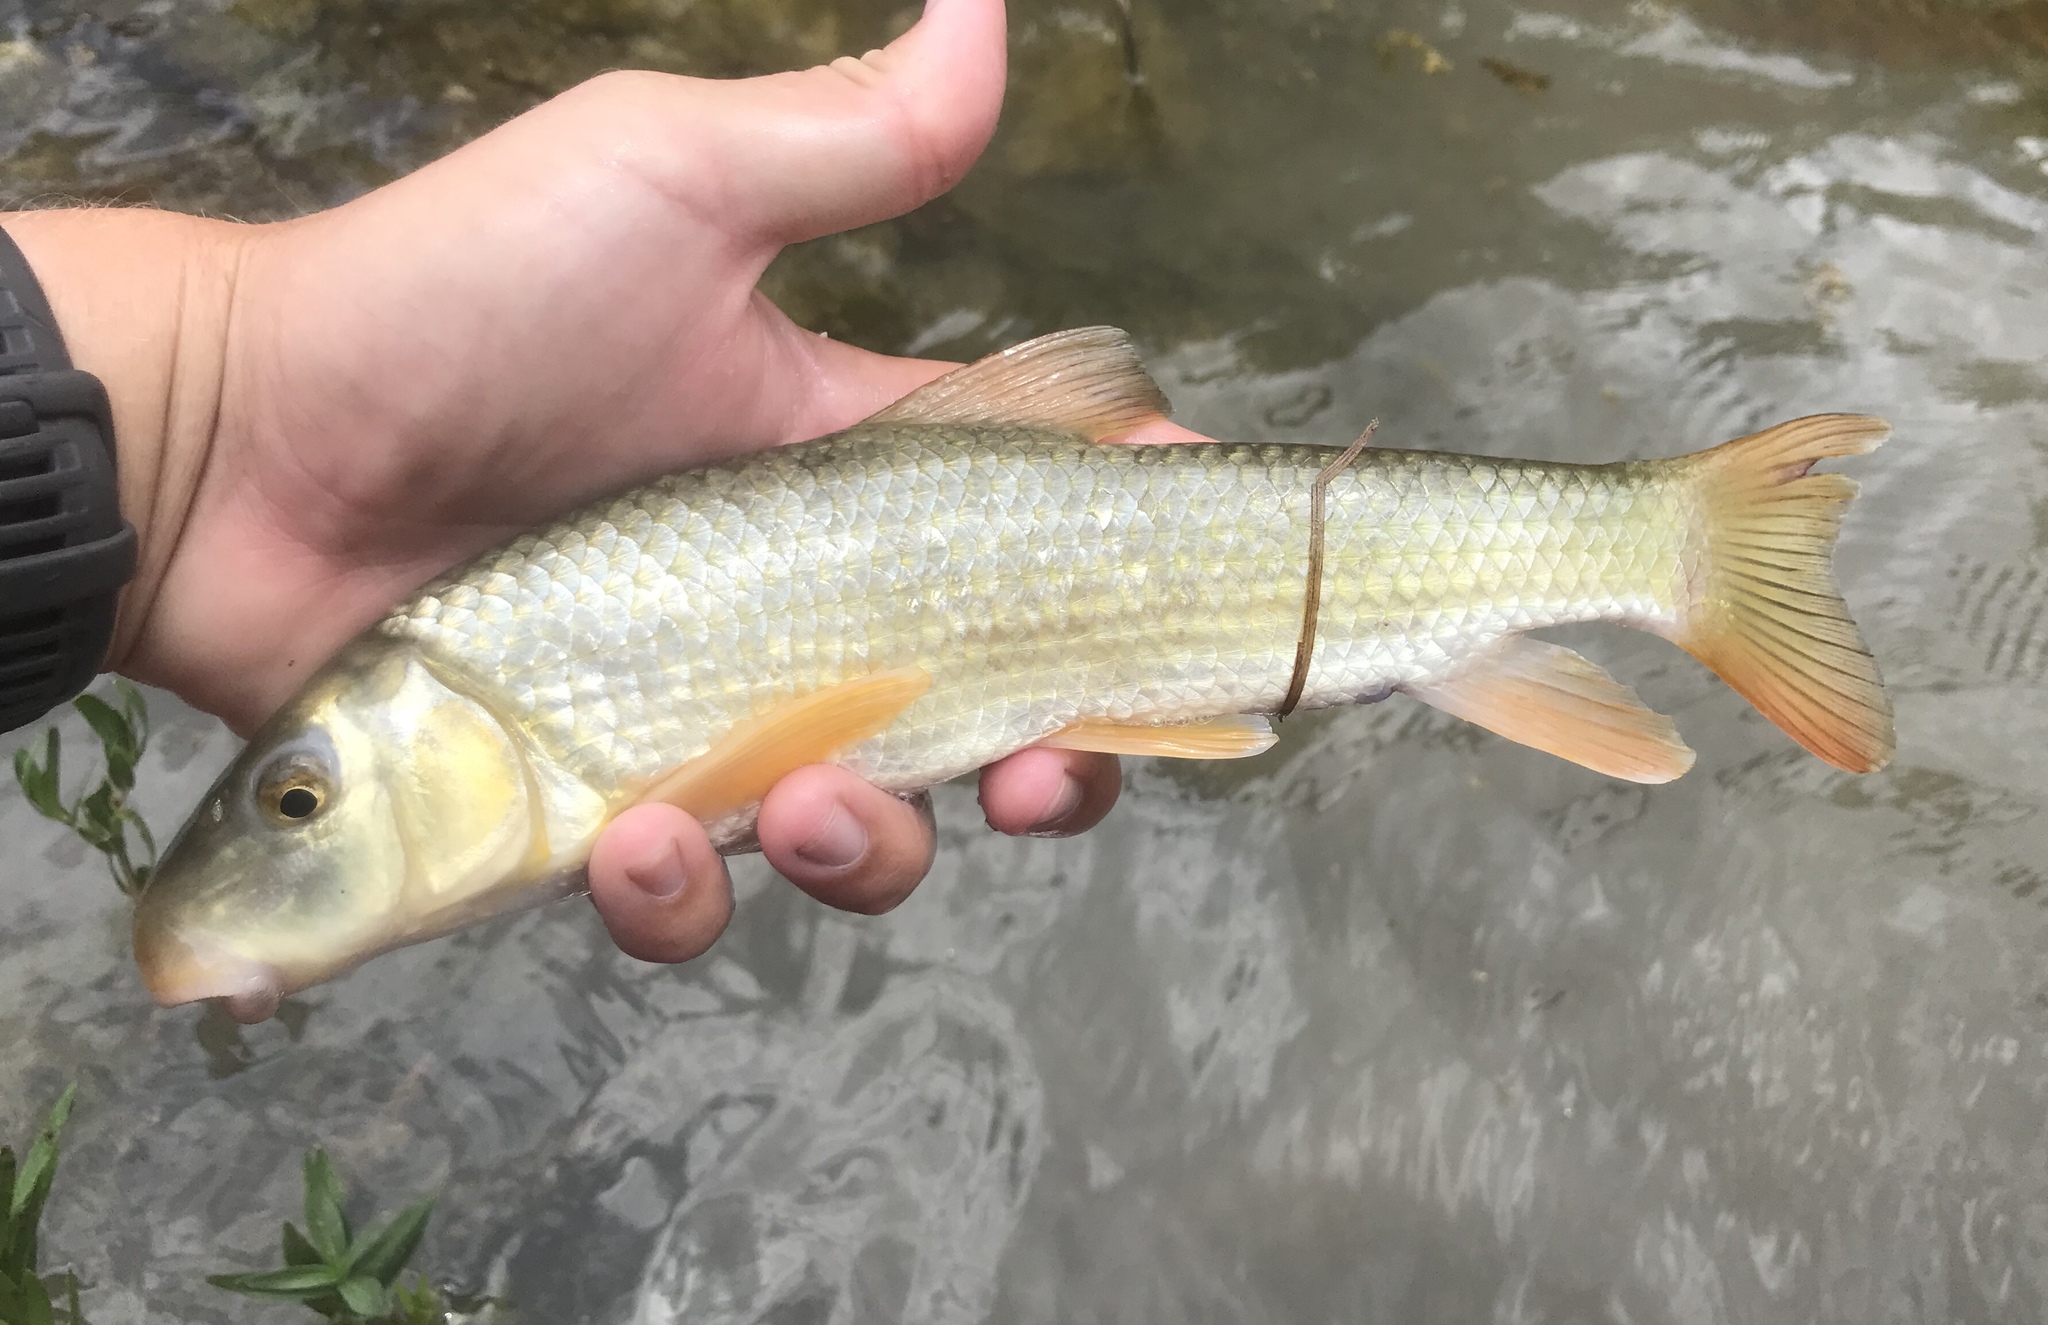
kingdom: Animalia
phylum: Chordata
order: Cypriniformes
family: Catostomidae
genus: Moxostoma
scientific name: Moxostoma congestum
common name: Gray redhorse
